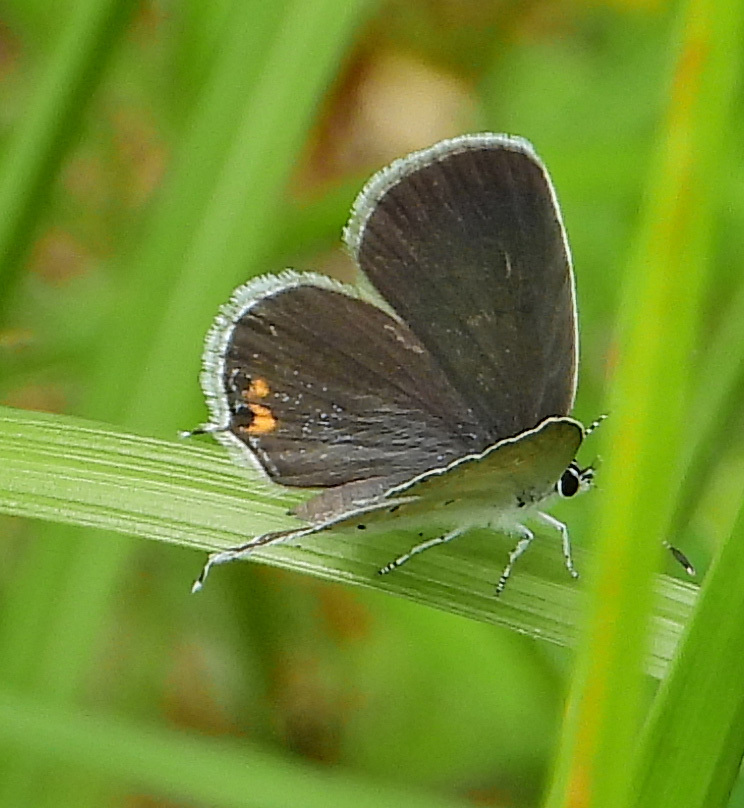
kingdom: Animalia
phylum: Arthropoda
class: Insecta
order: Lepidoptera
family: Lycaenidae
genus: Elkalyce
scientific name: Elkalyce comyntas
